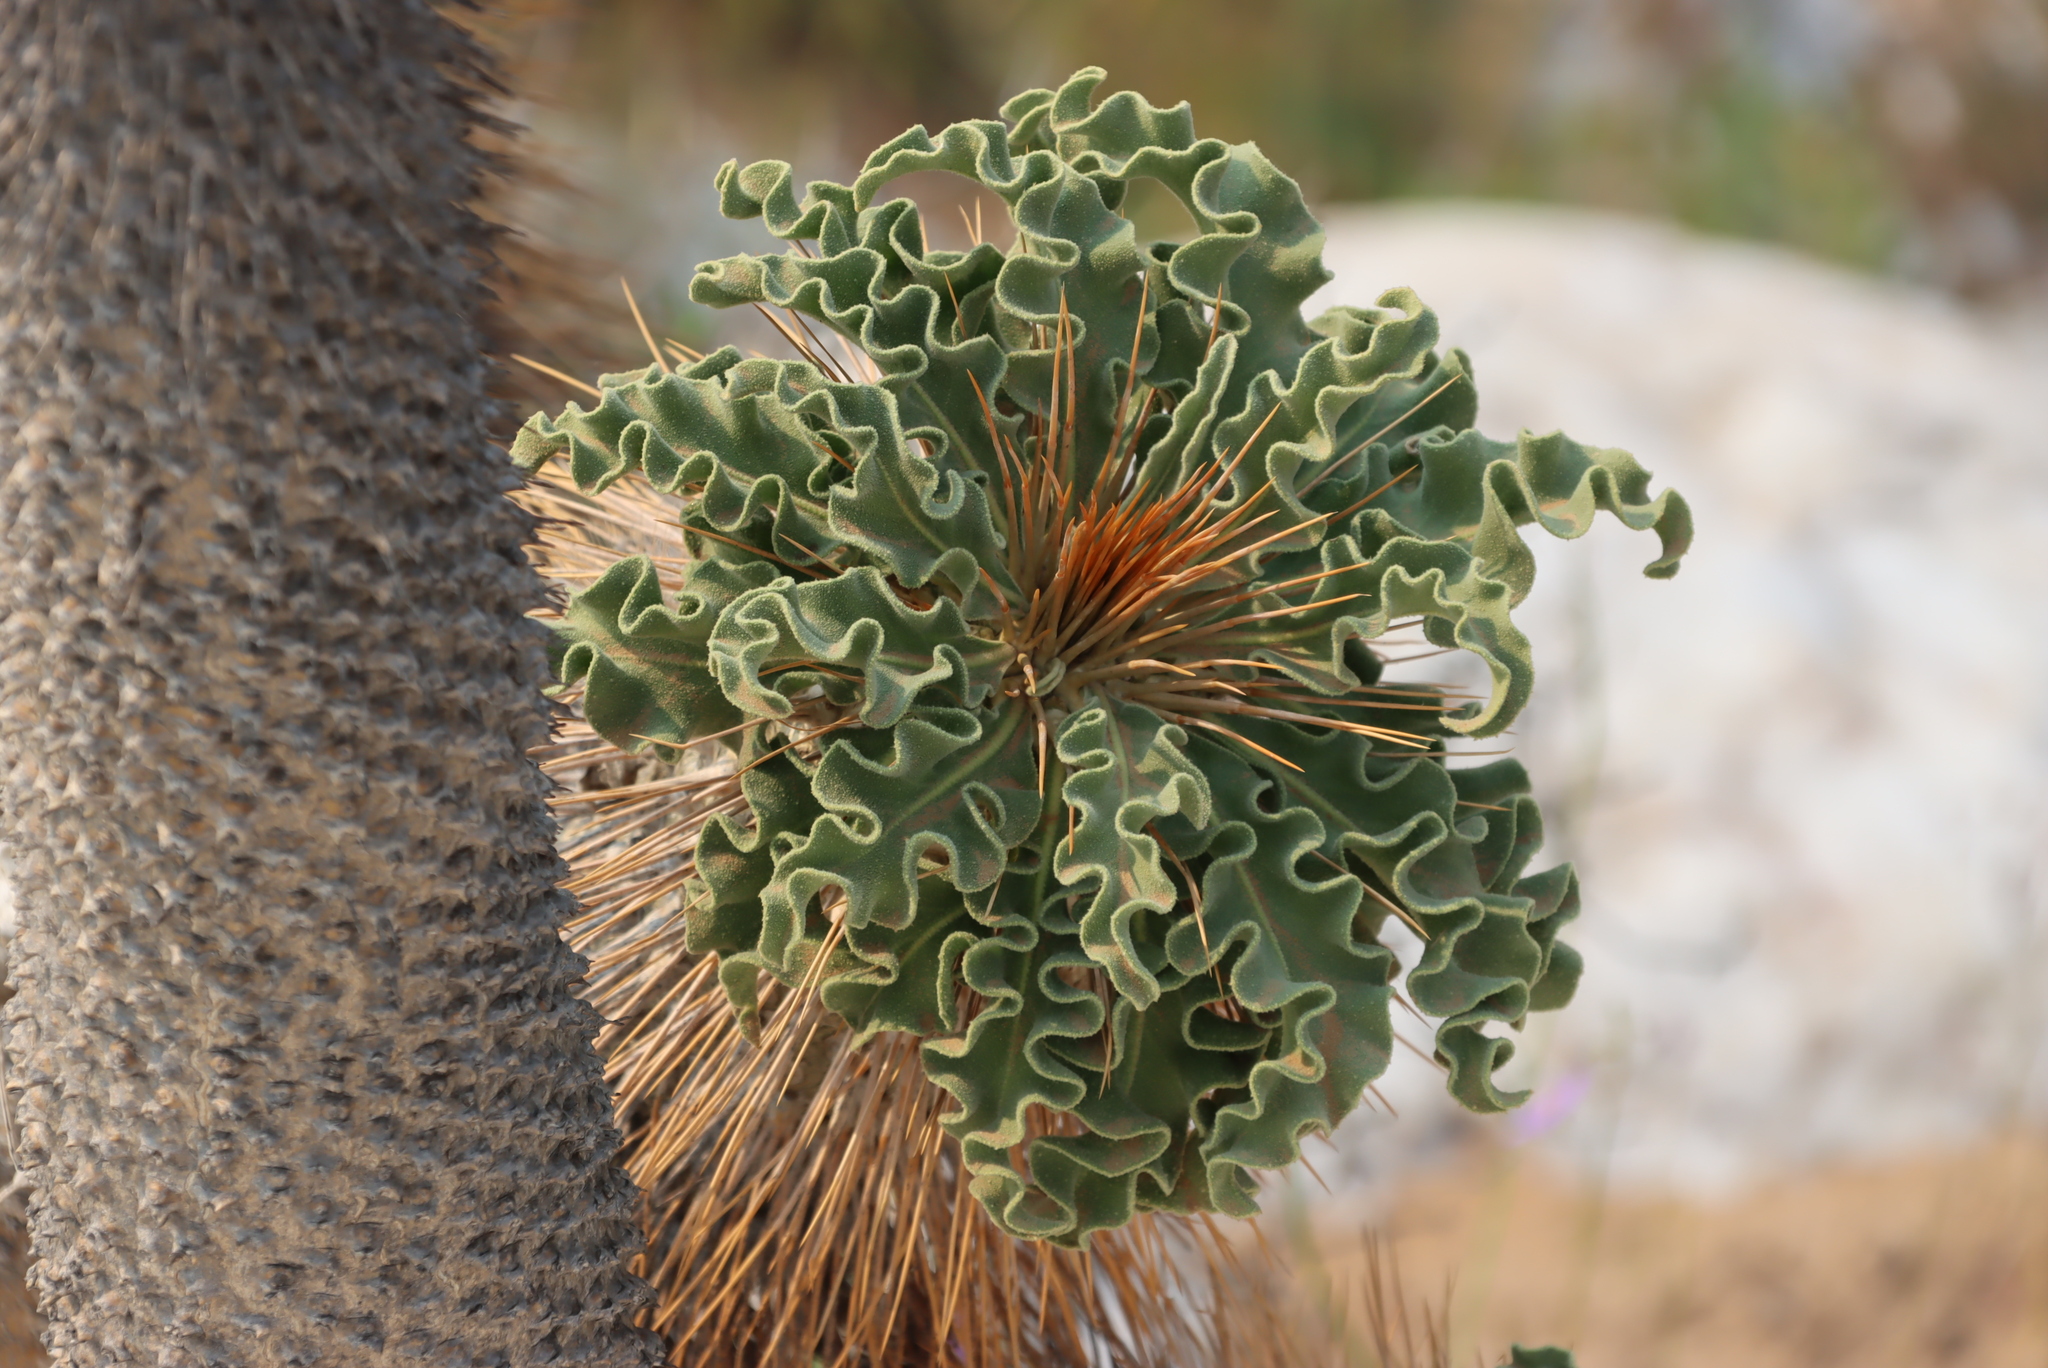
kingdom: Plantae
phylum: Tracheophyta
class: Magnoliopsida
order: Gentianales
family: Apocynaceae
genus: Pachypodium
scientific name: Pachypodium namaquanum
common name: Elephant's trunk
